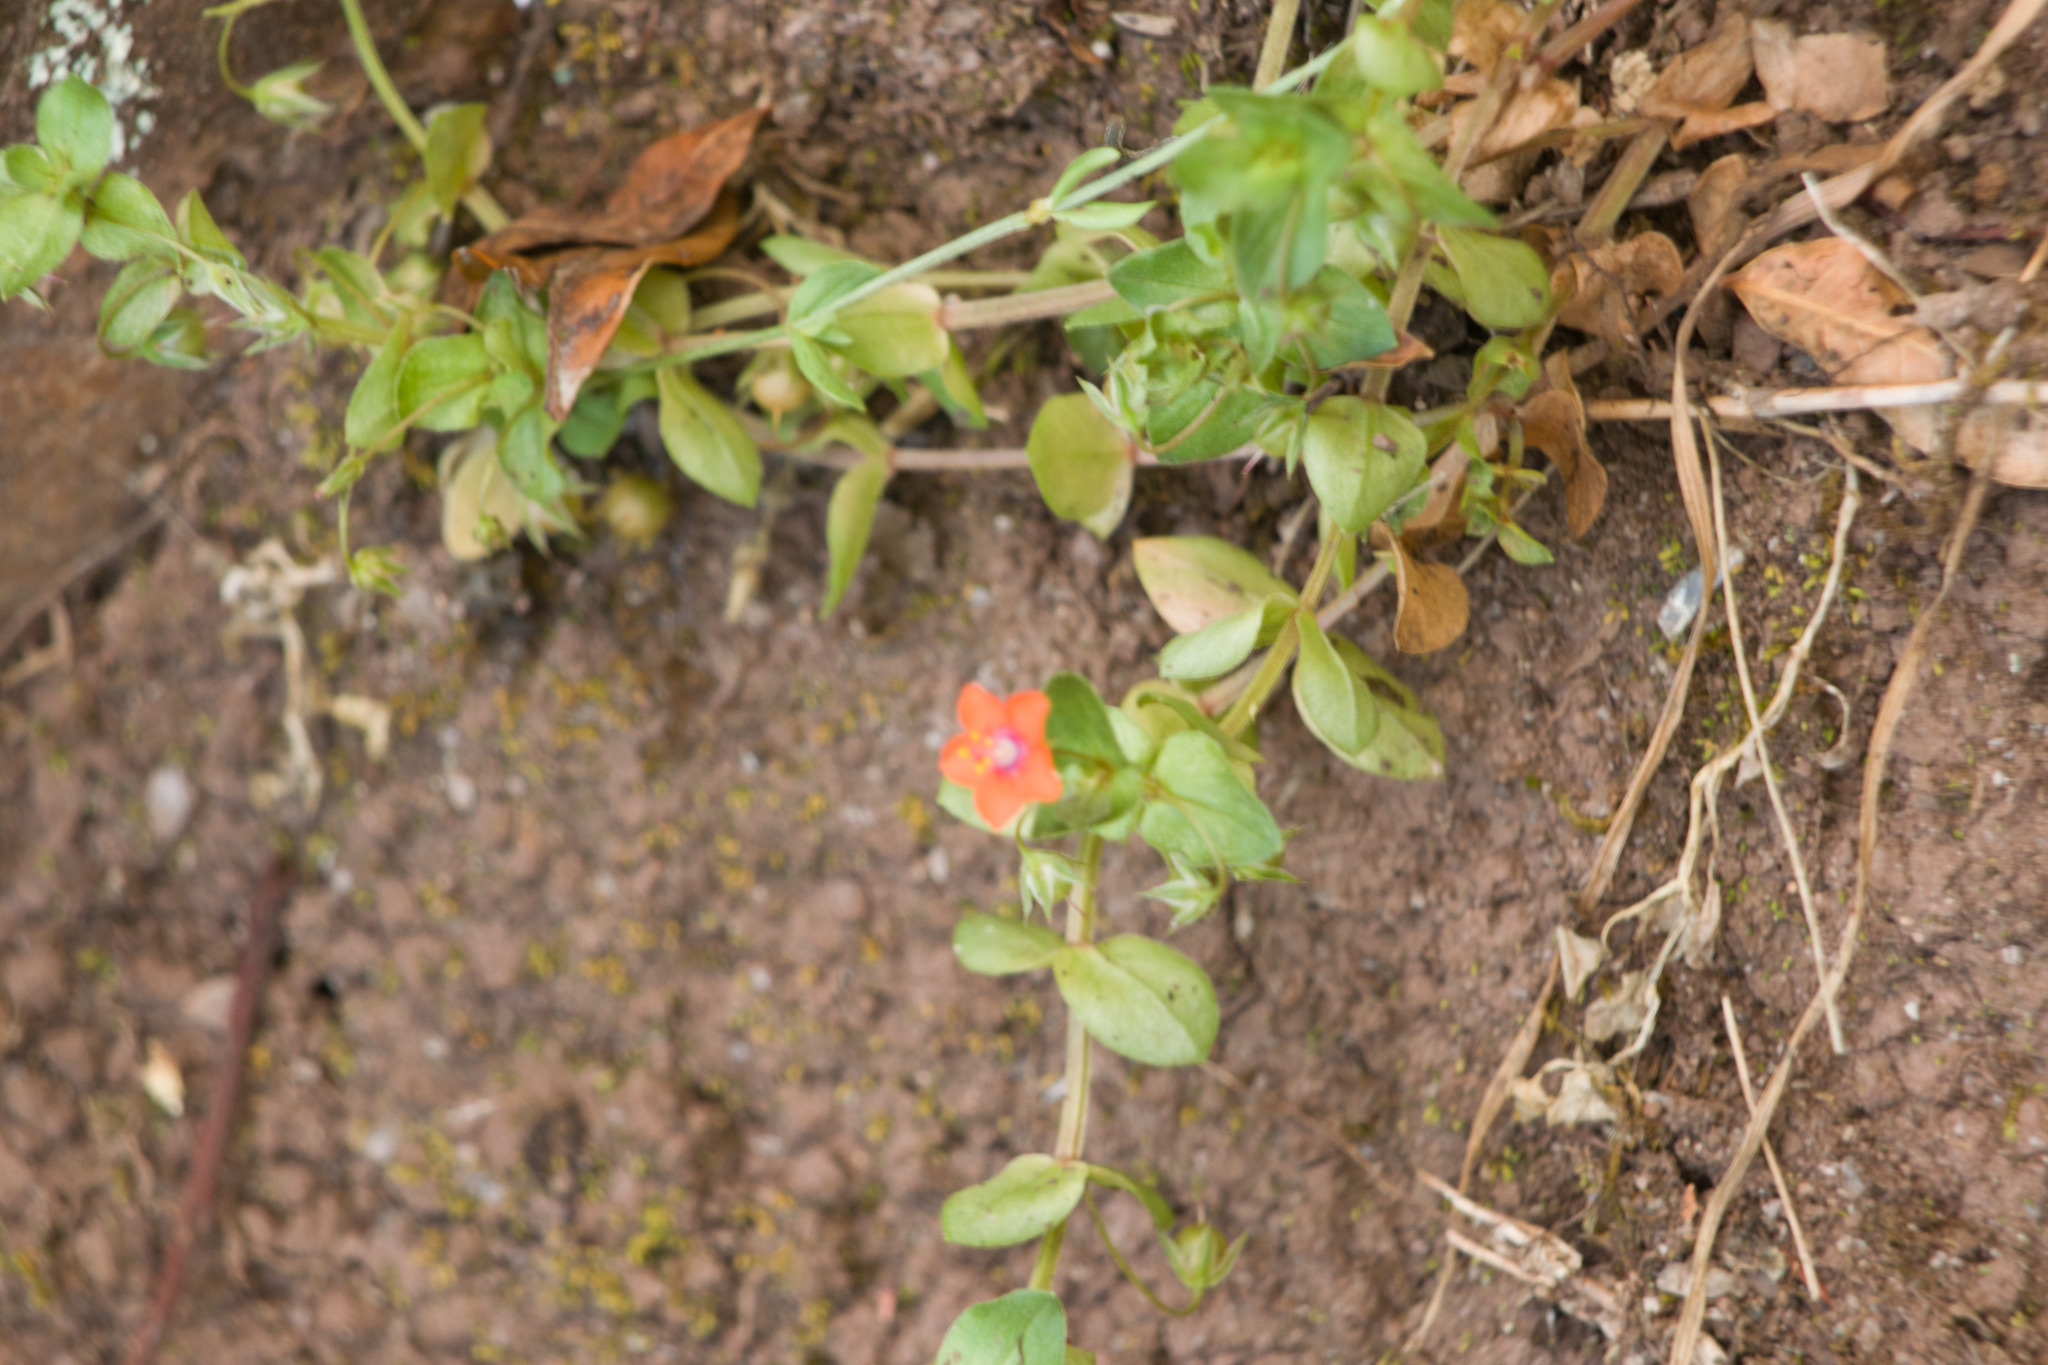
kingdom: Plantae
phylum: Tracheophyta
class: Magnoliopsida
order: Ericales
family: Primulaceae
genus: Lysimachia
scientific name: Lysimachia arvensis
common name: Scarlet pimpernel
